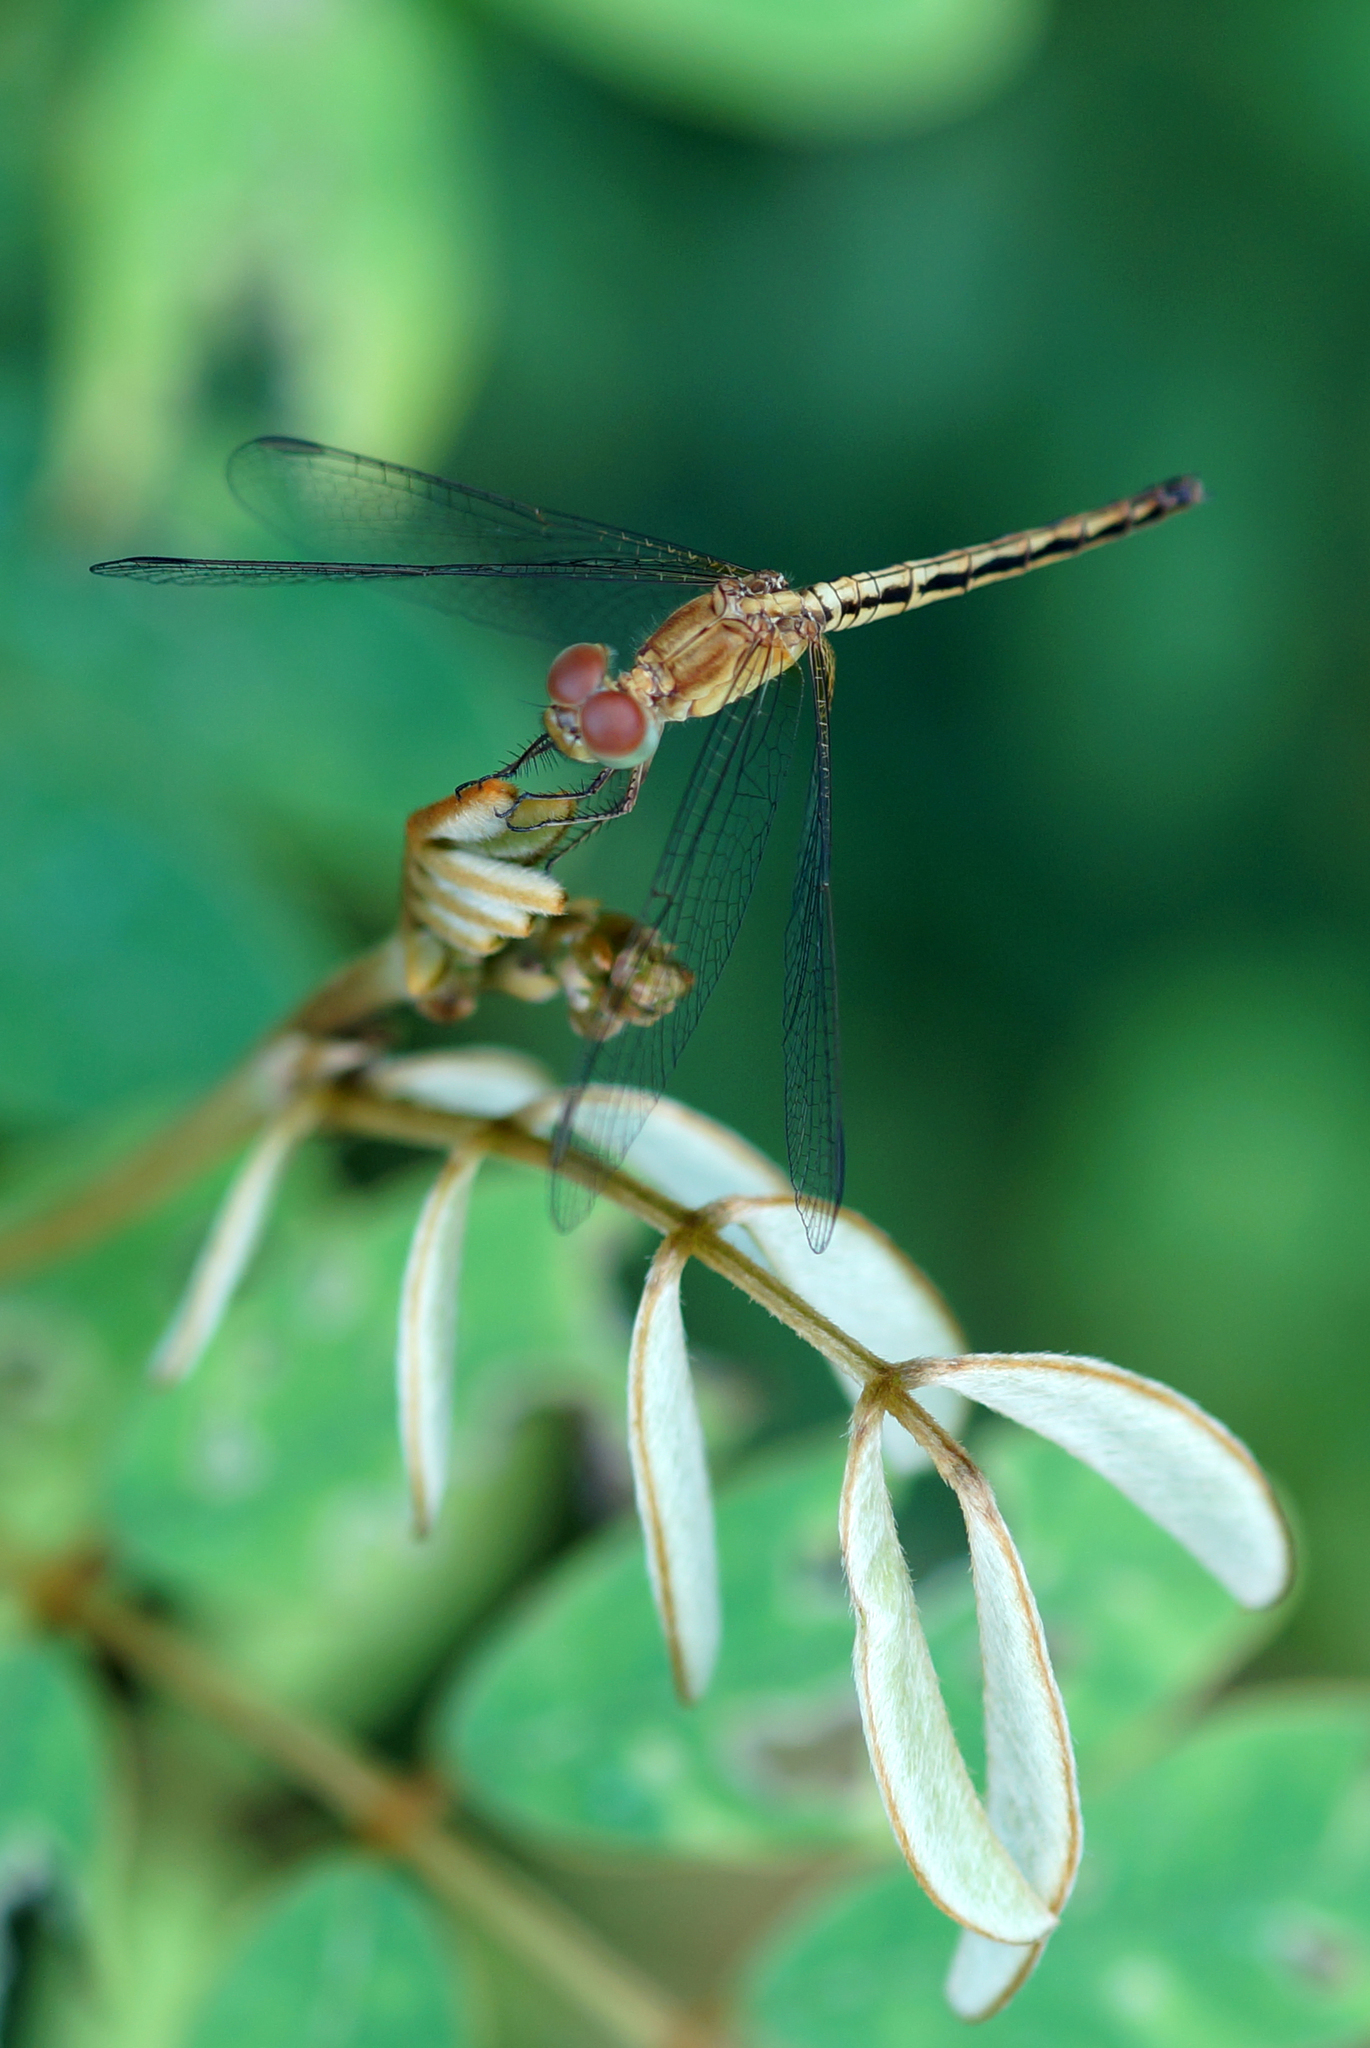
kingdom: Animalia
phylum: Arthropoda
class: Insecta
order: Odonata
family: Libellulidae
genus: Neurothemis
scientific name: Neurothemis intermedia
